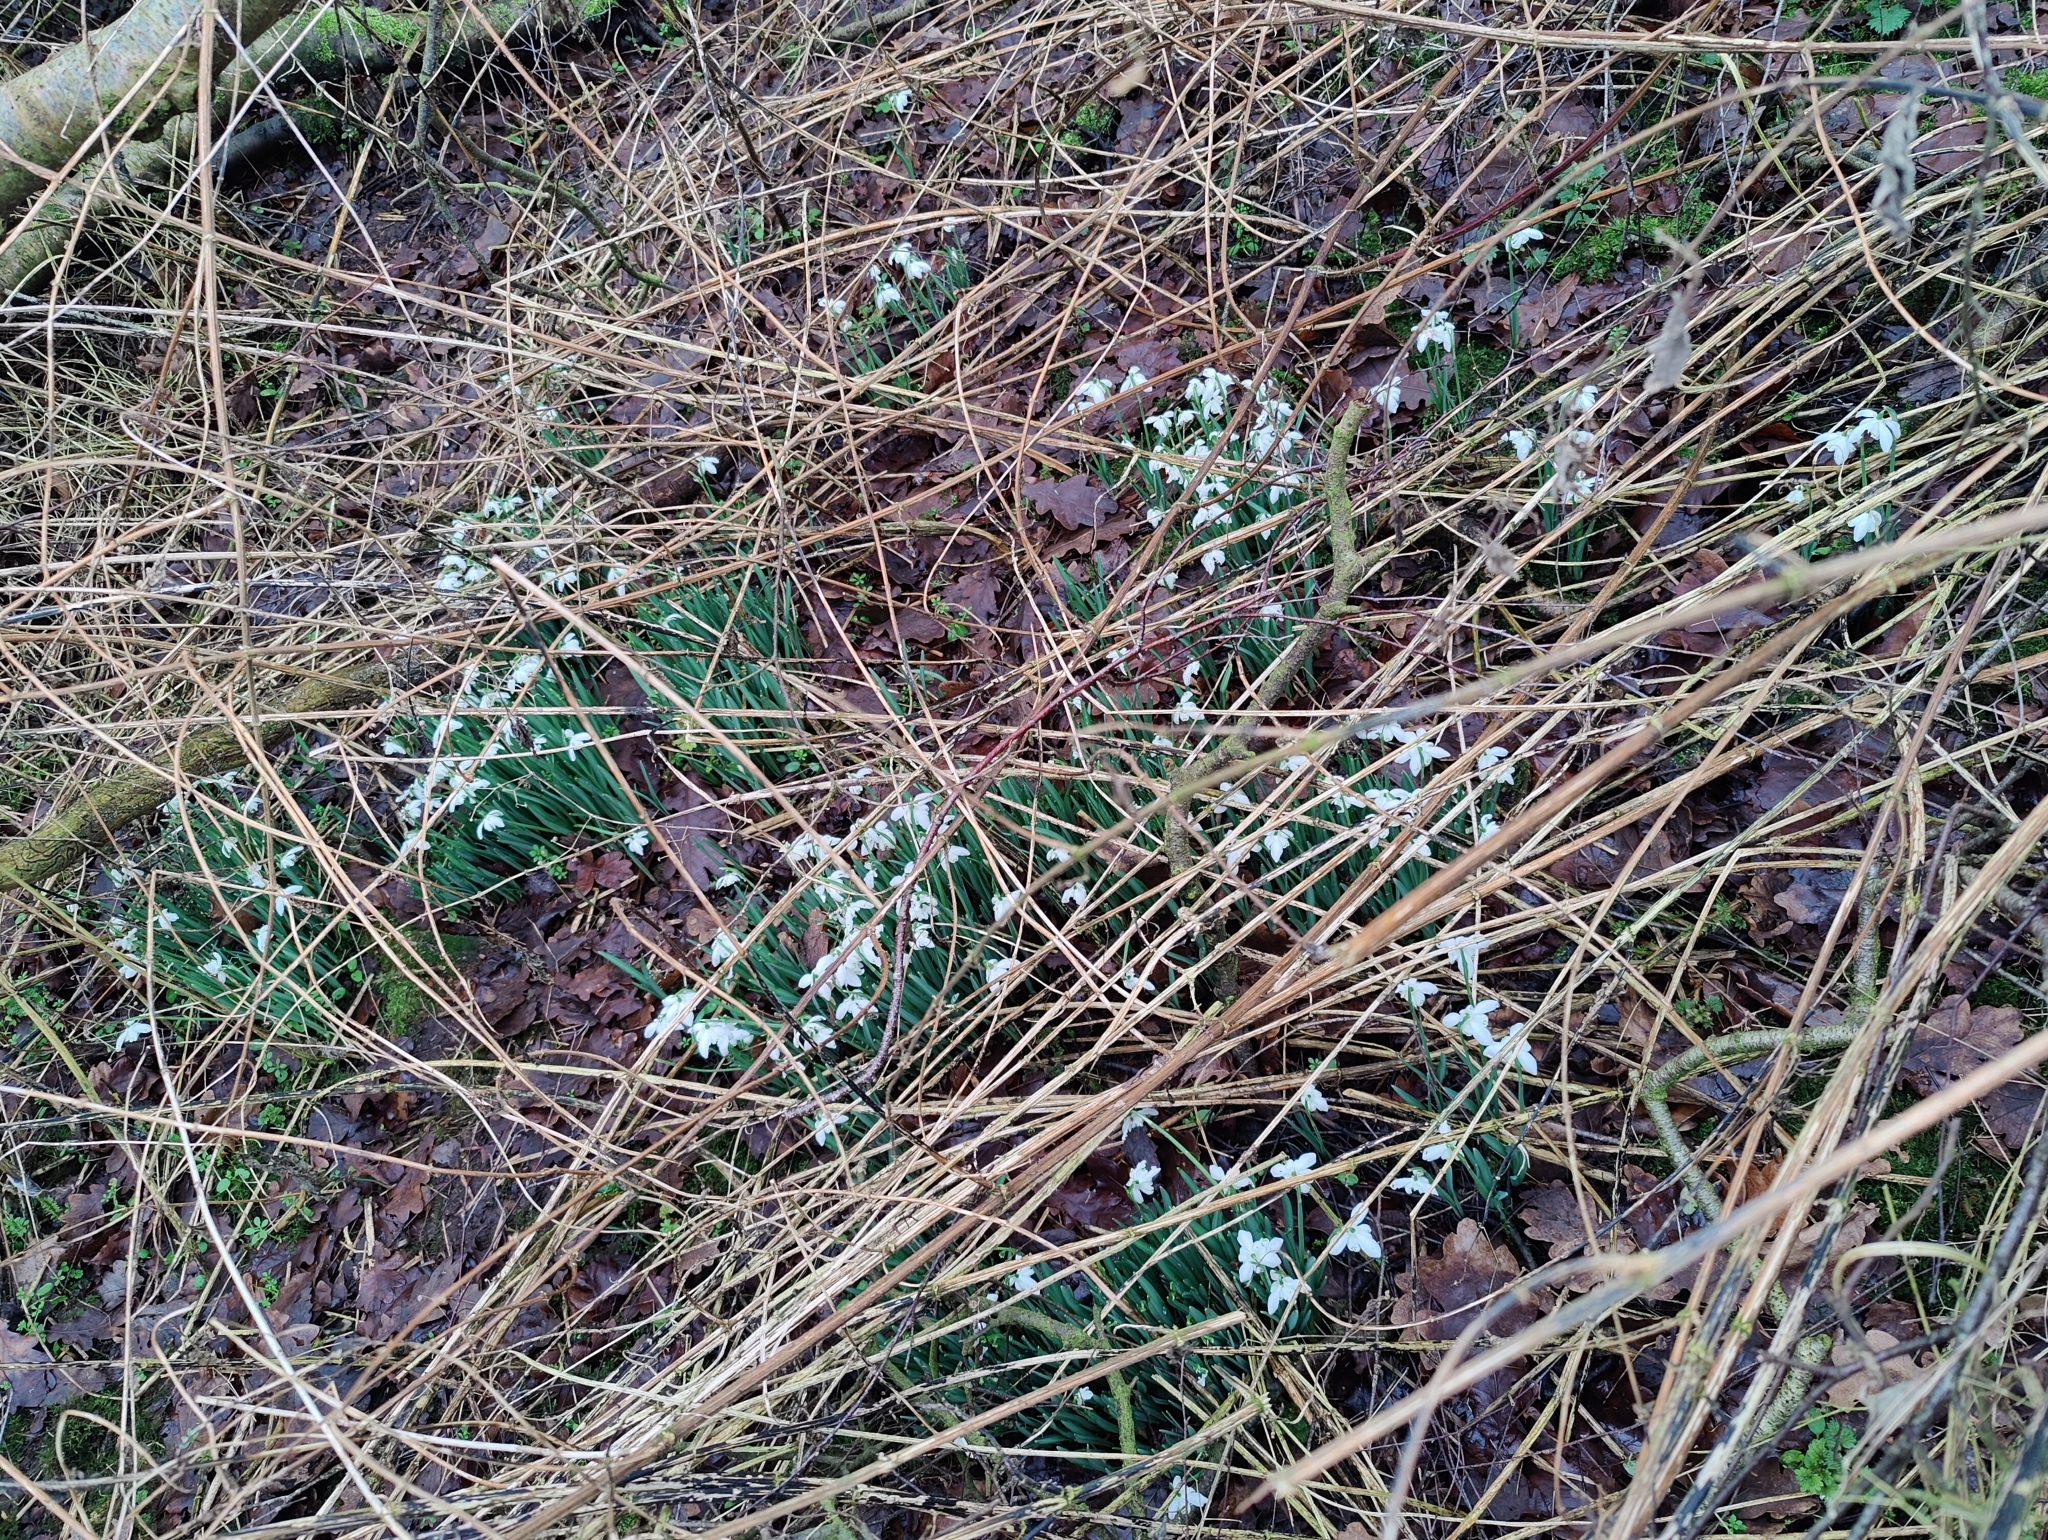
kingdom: Plantae
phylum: Tracheophyta
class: Liliopsida
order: Asparagales
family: Amaryllidaceae
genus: Galanthus
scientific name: Galanthus nivalis
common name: Snowdrop
